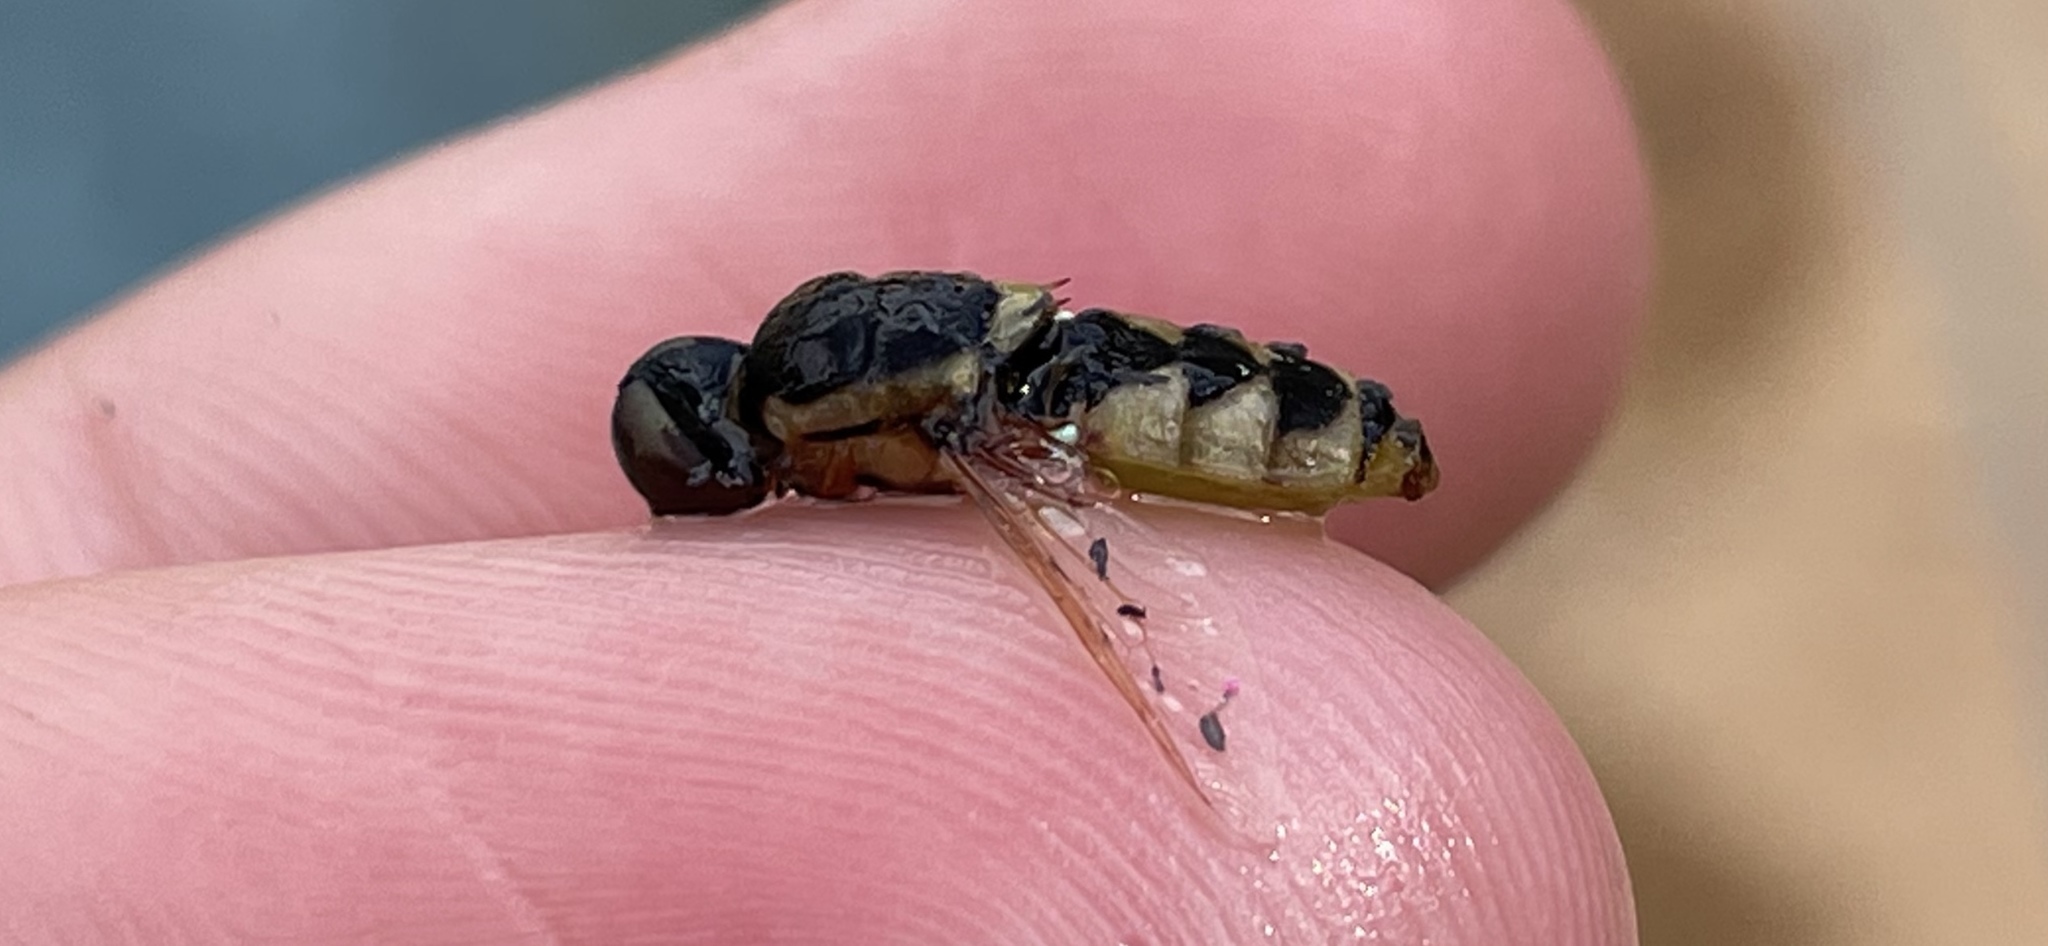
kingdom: Animalia
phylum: Arthropoda
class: Insecta
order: Diptera
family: Stratiomyidae
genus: Odontomyia
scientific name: Odontomyia cincta
